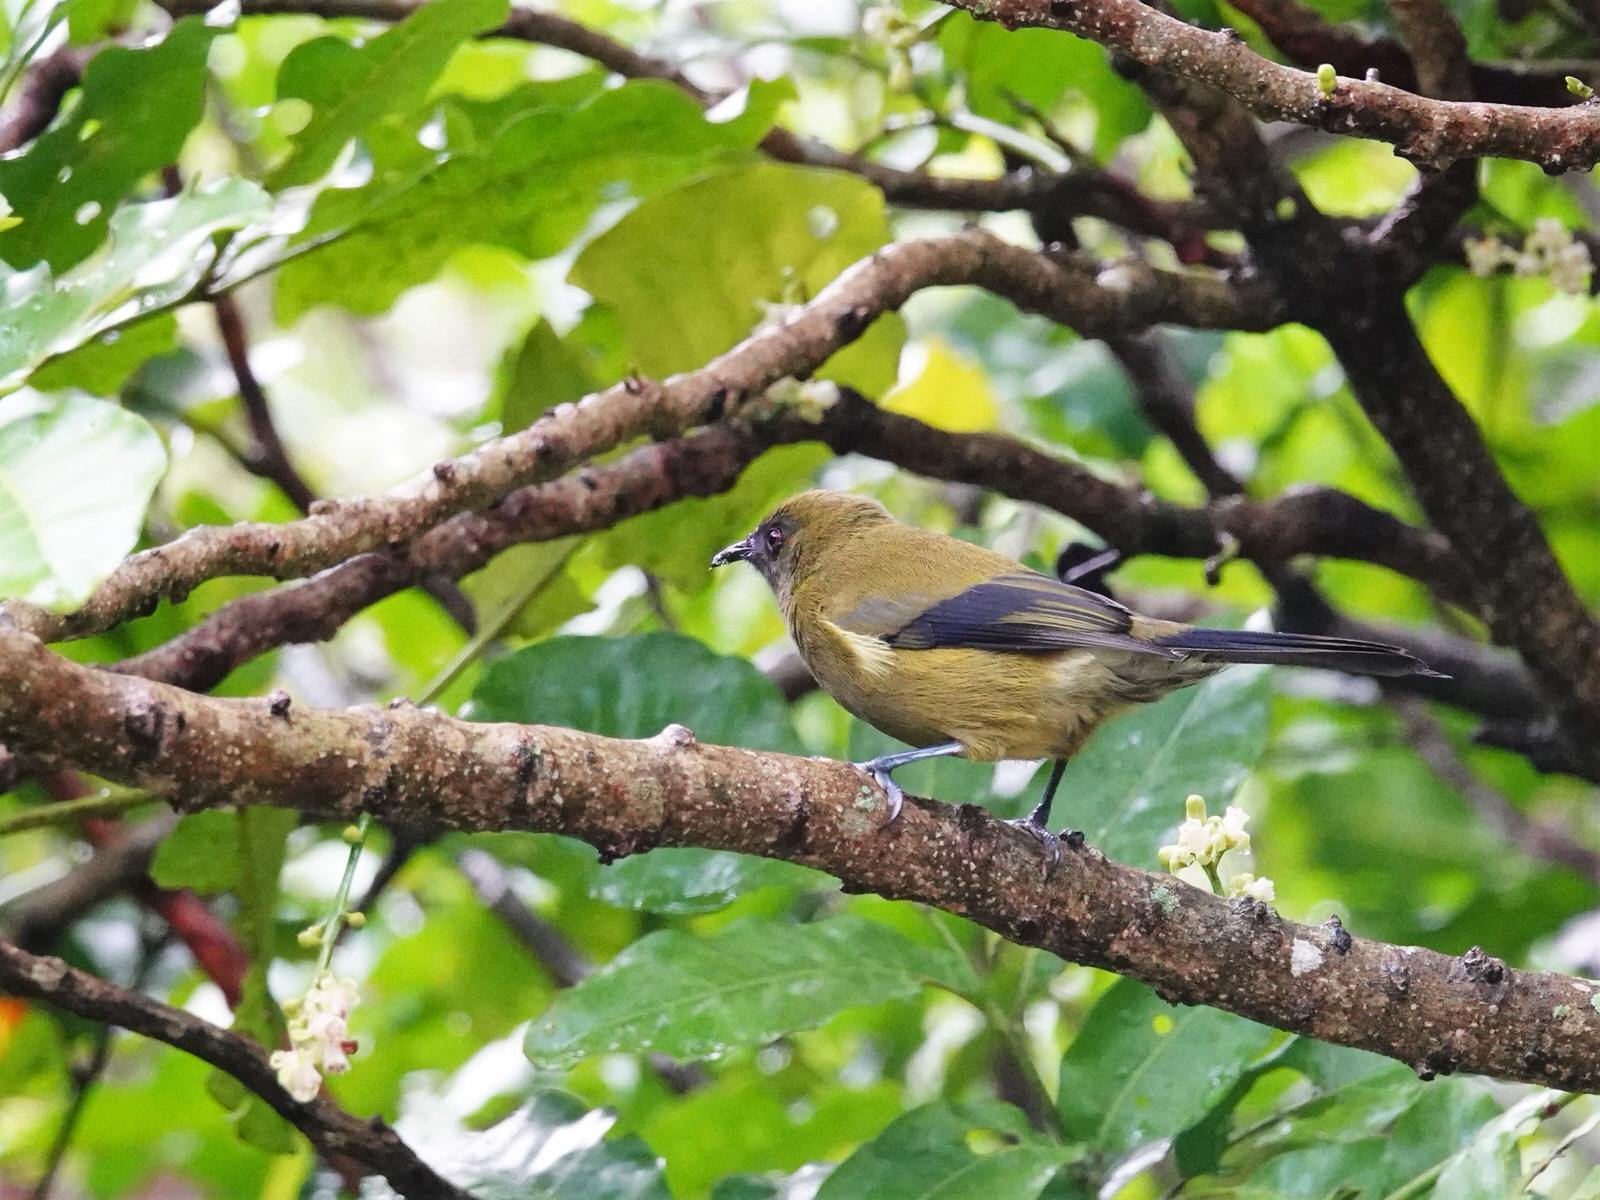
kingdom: Animalia
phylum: Chordata
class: Aves
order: Passeriformes
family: Meliphagidae
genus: Anthornis
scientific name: Anthornis melanura
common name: New zealand bellbird
